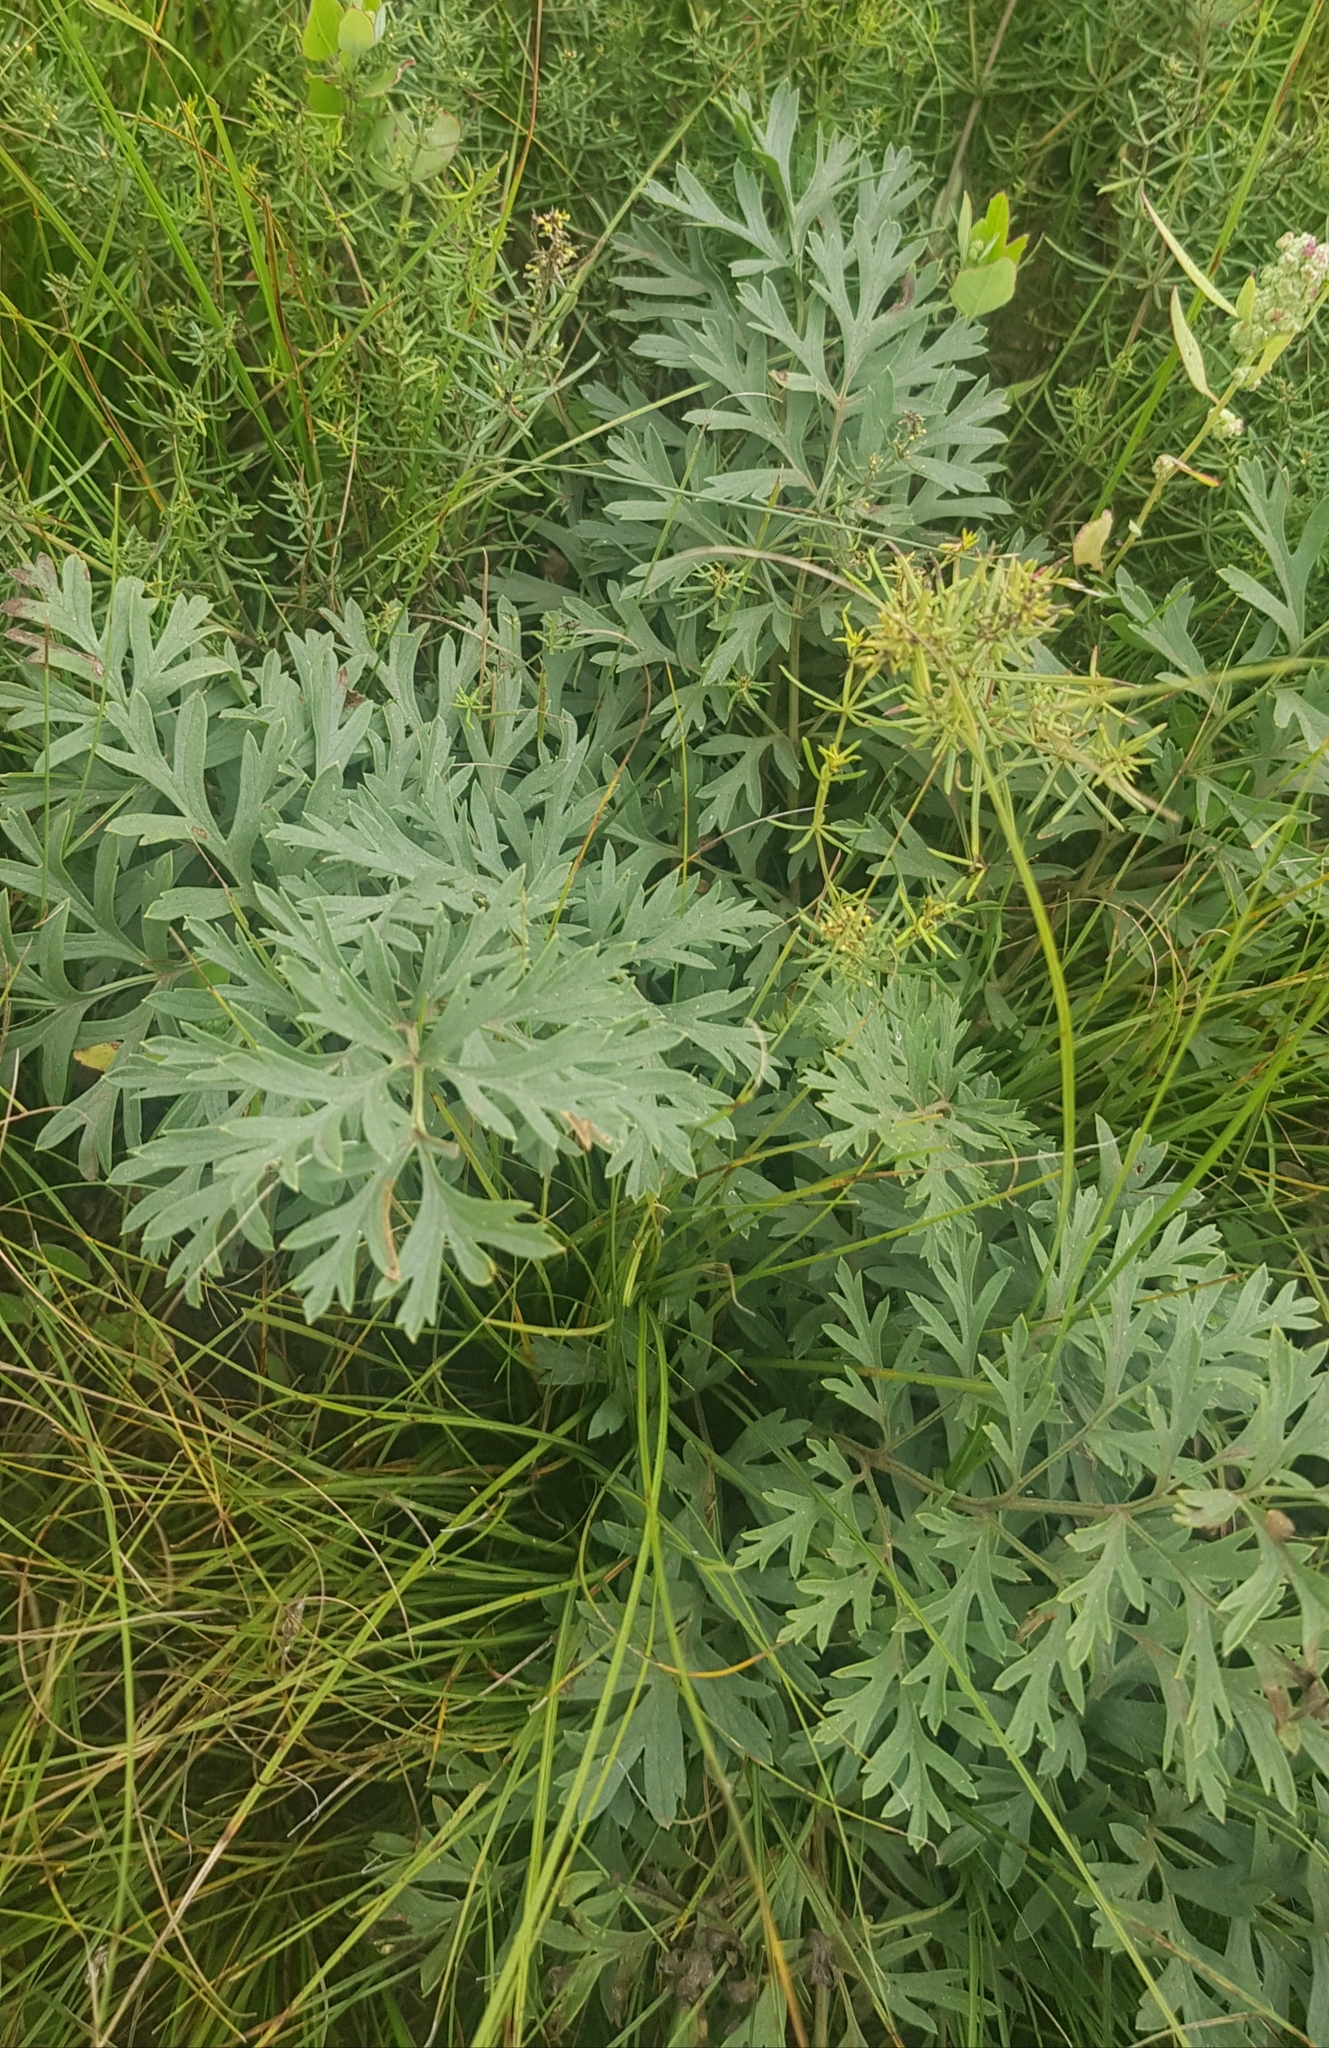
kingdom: Plantae
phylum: Tracheophyta
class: Magnoliopsida
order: Apiales
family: Apiaceae
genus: Saposhnikovia
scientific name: Saposhnikovia divaricata
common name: Siler
